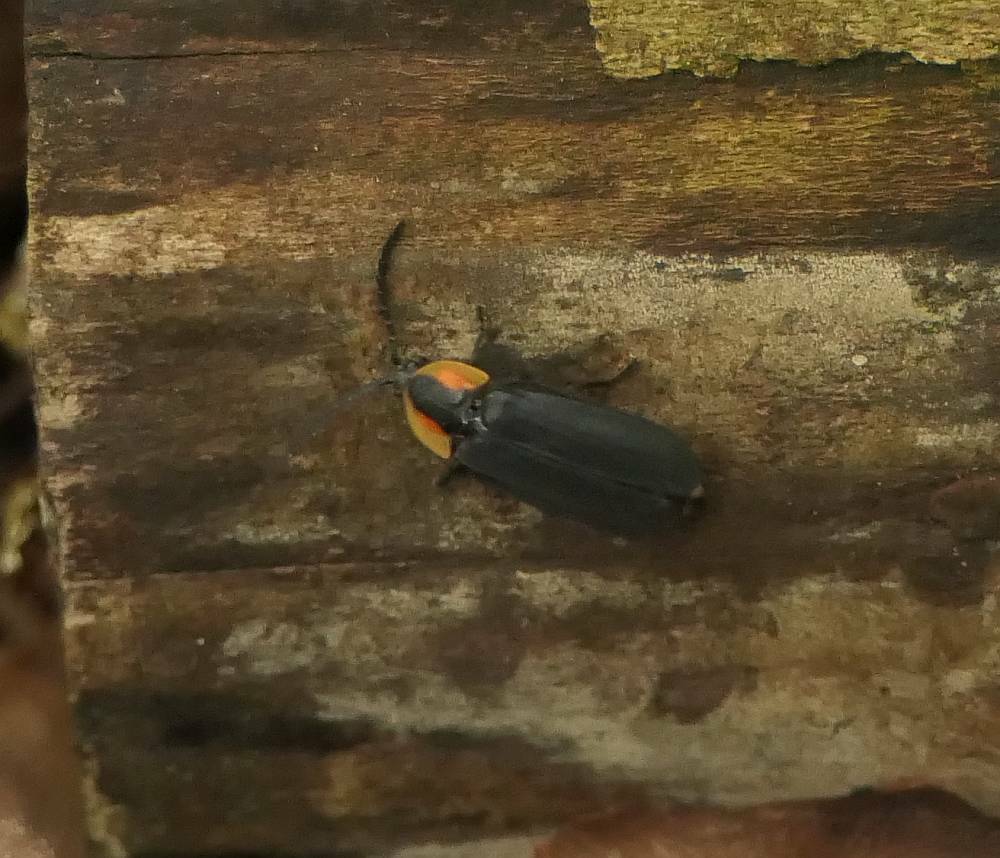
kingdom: Animalia
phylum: Arthropoda
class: Insecta
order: Coleoptera
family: Lampyridae
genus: Lucidota
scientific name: Lucidota atra
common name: Black firefly
